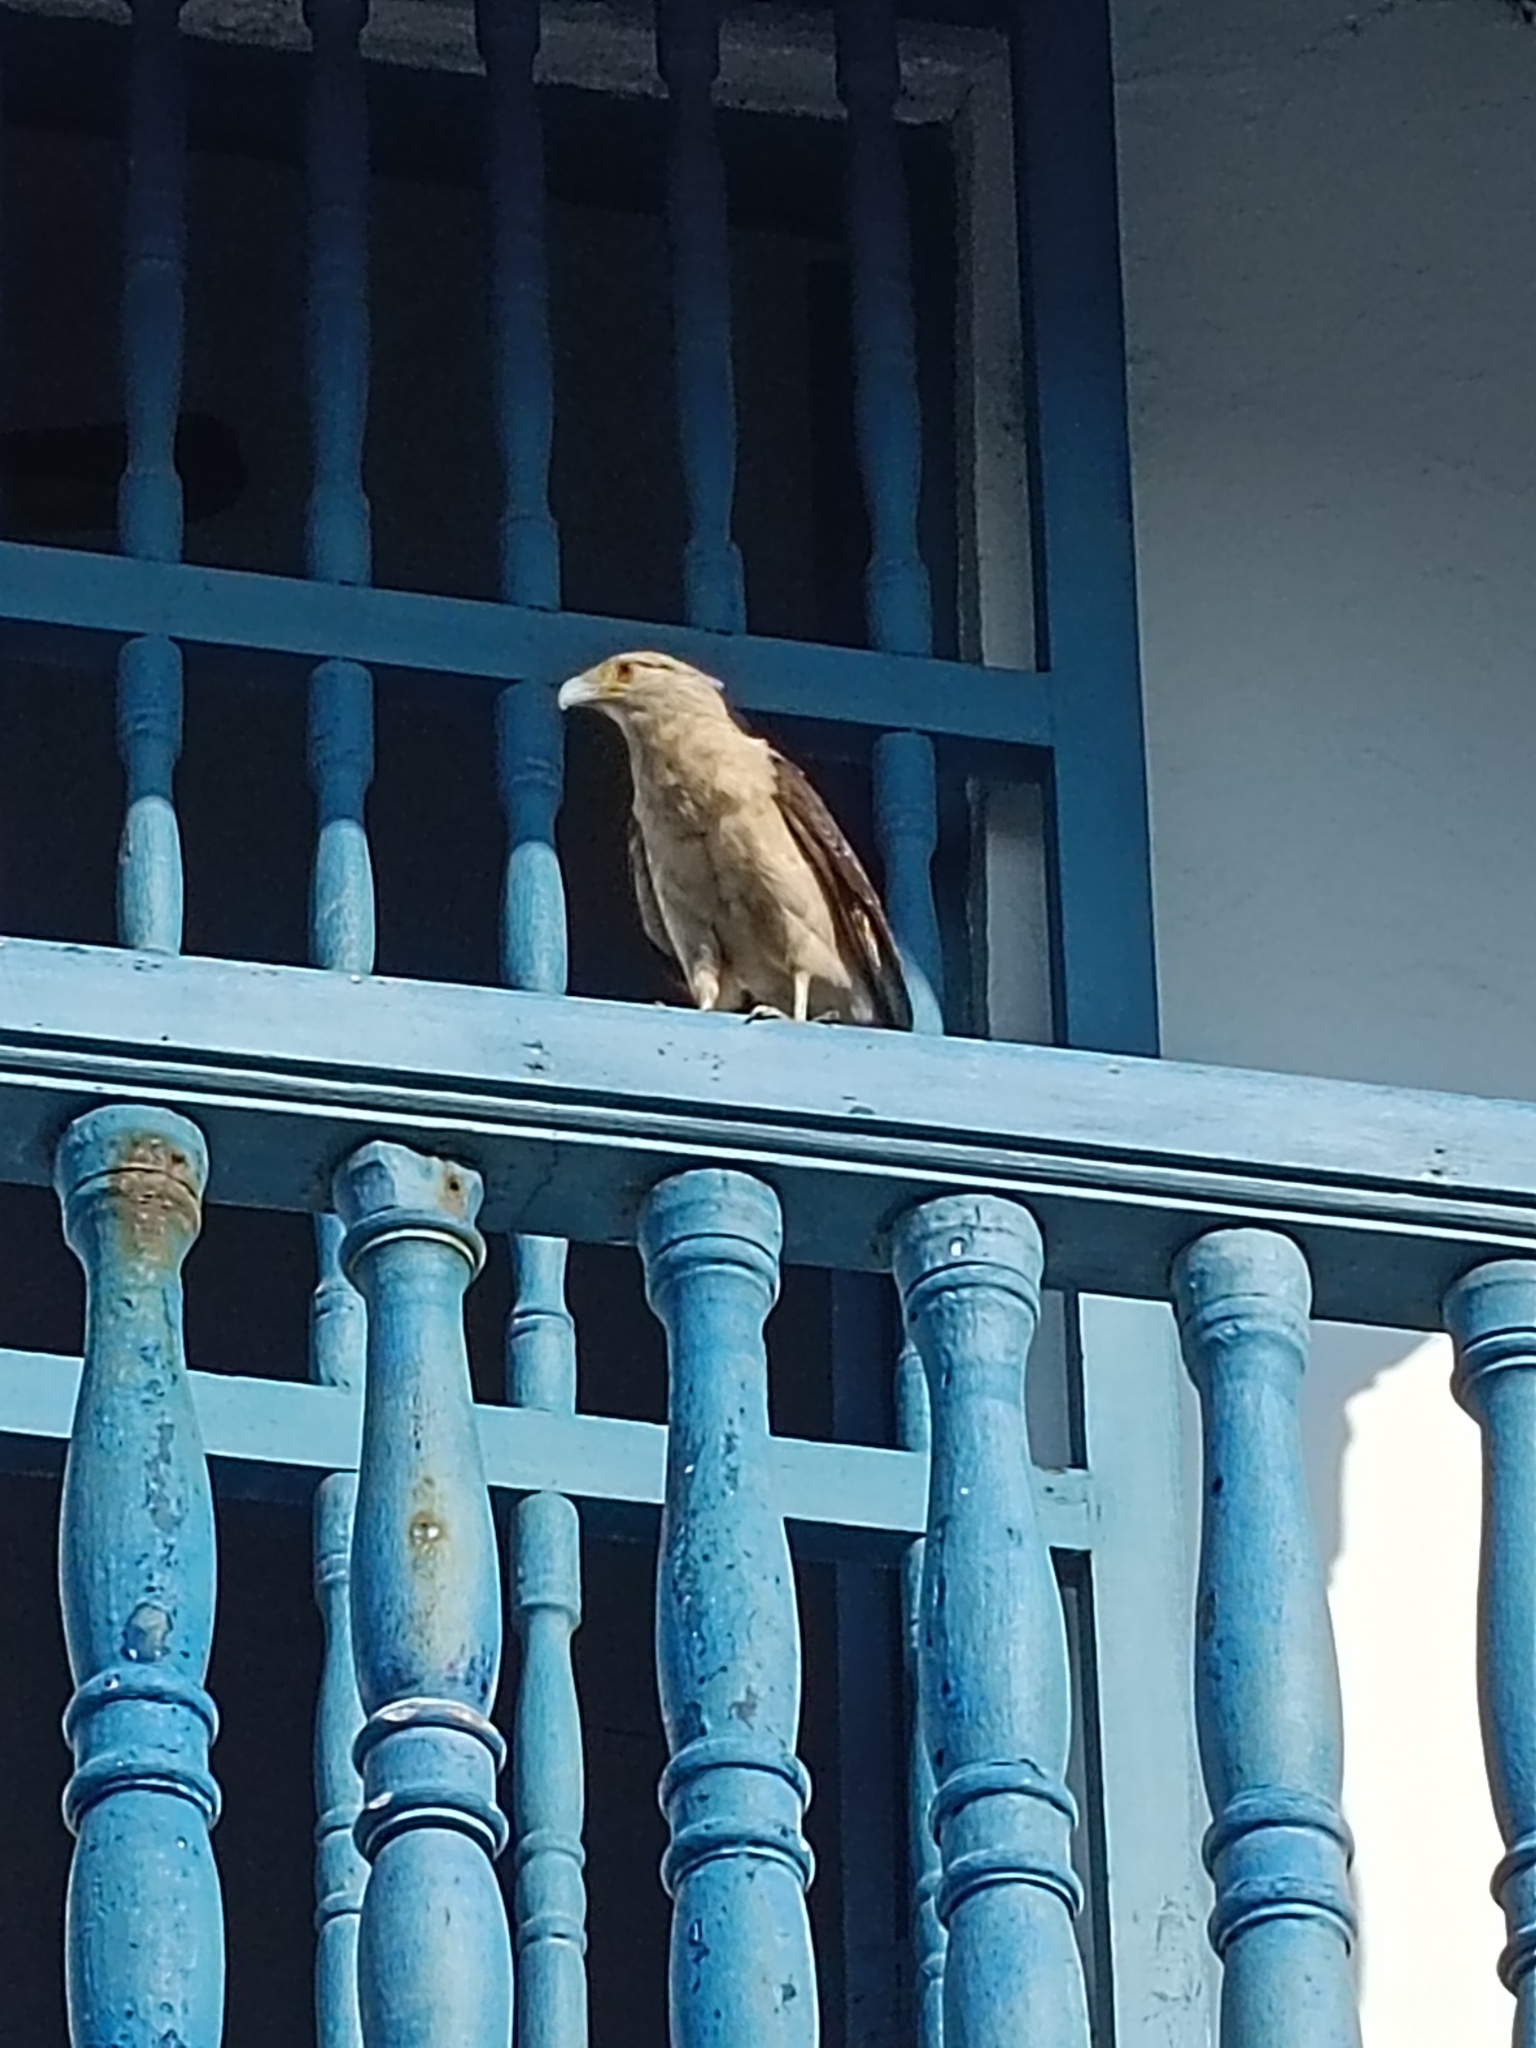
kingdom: Animalia
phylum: Chordata
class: Aves
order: Falconiformes
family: Falconidae
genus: Daptrius
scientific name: Daptrius
